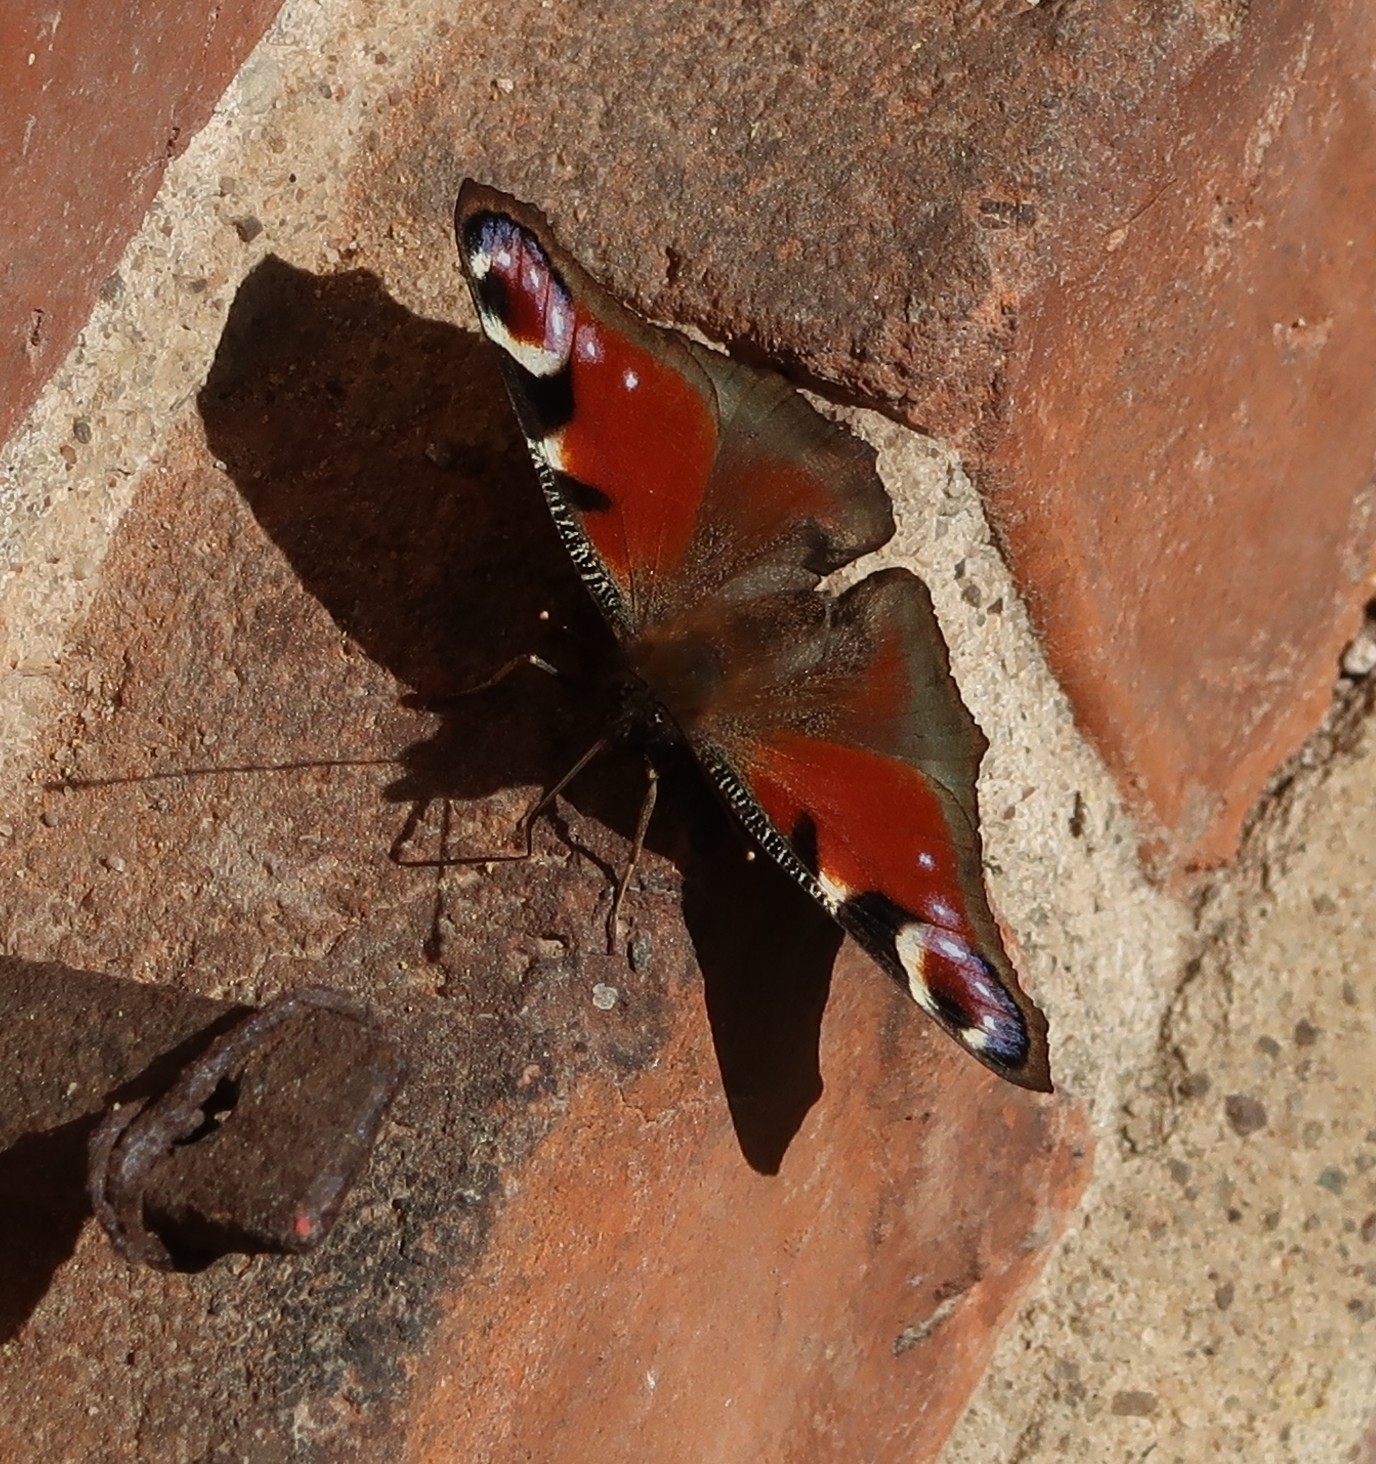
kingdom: Animalia
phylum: Arthropoda
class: Insecta
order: Lepidoptera
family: Nymphalidae
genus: Aglais
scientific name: Aglais io
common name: Peacock
